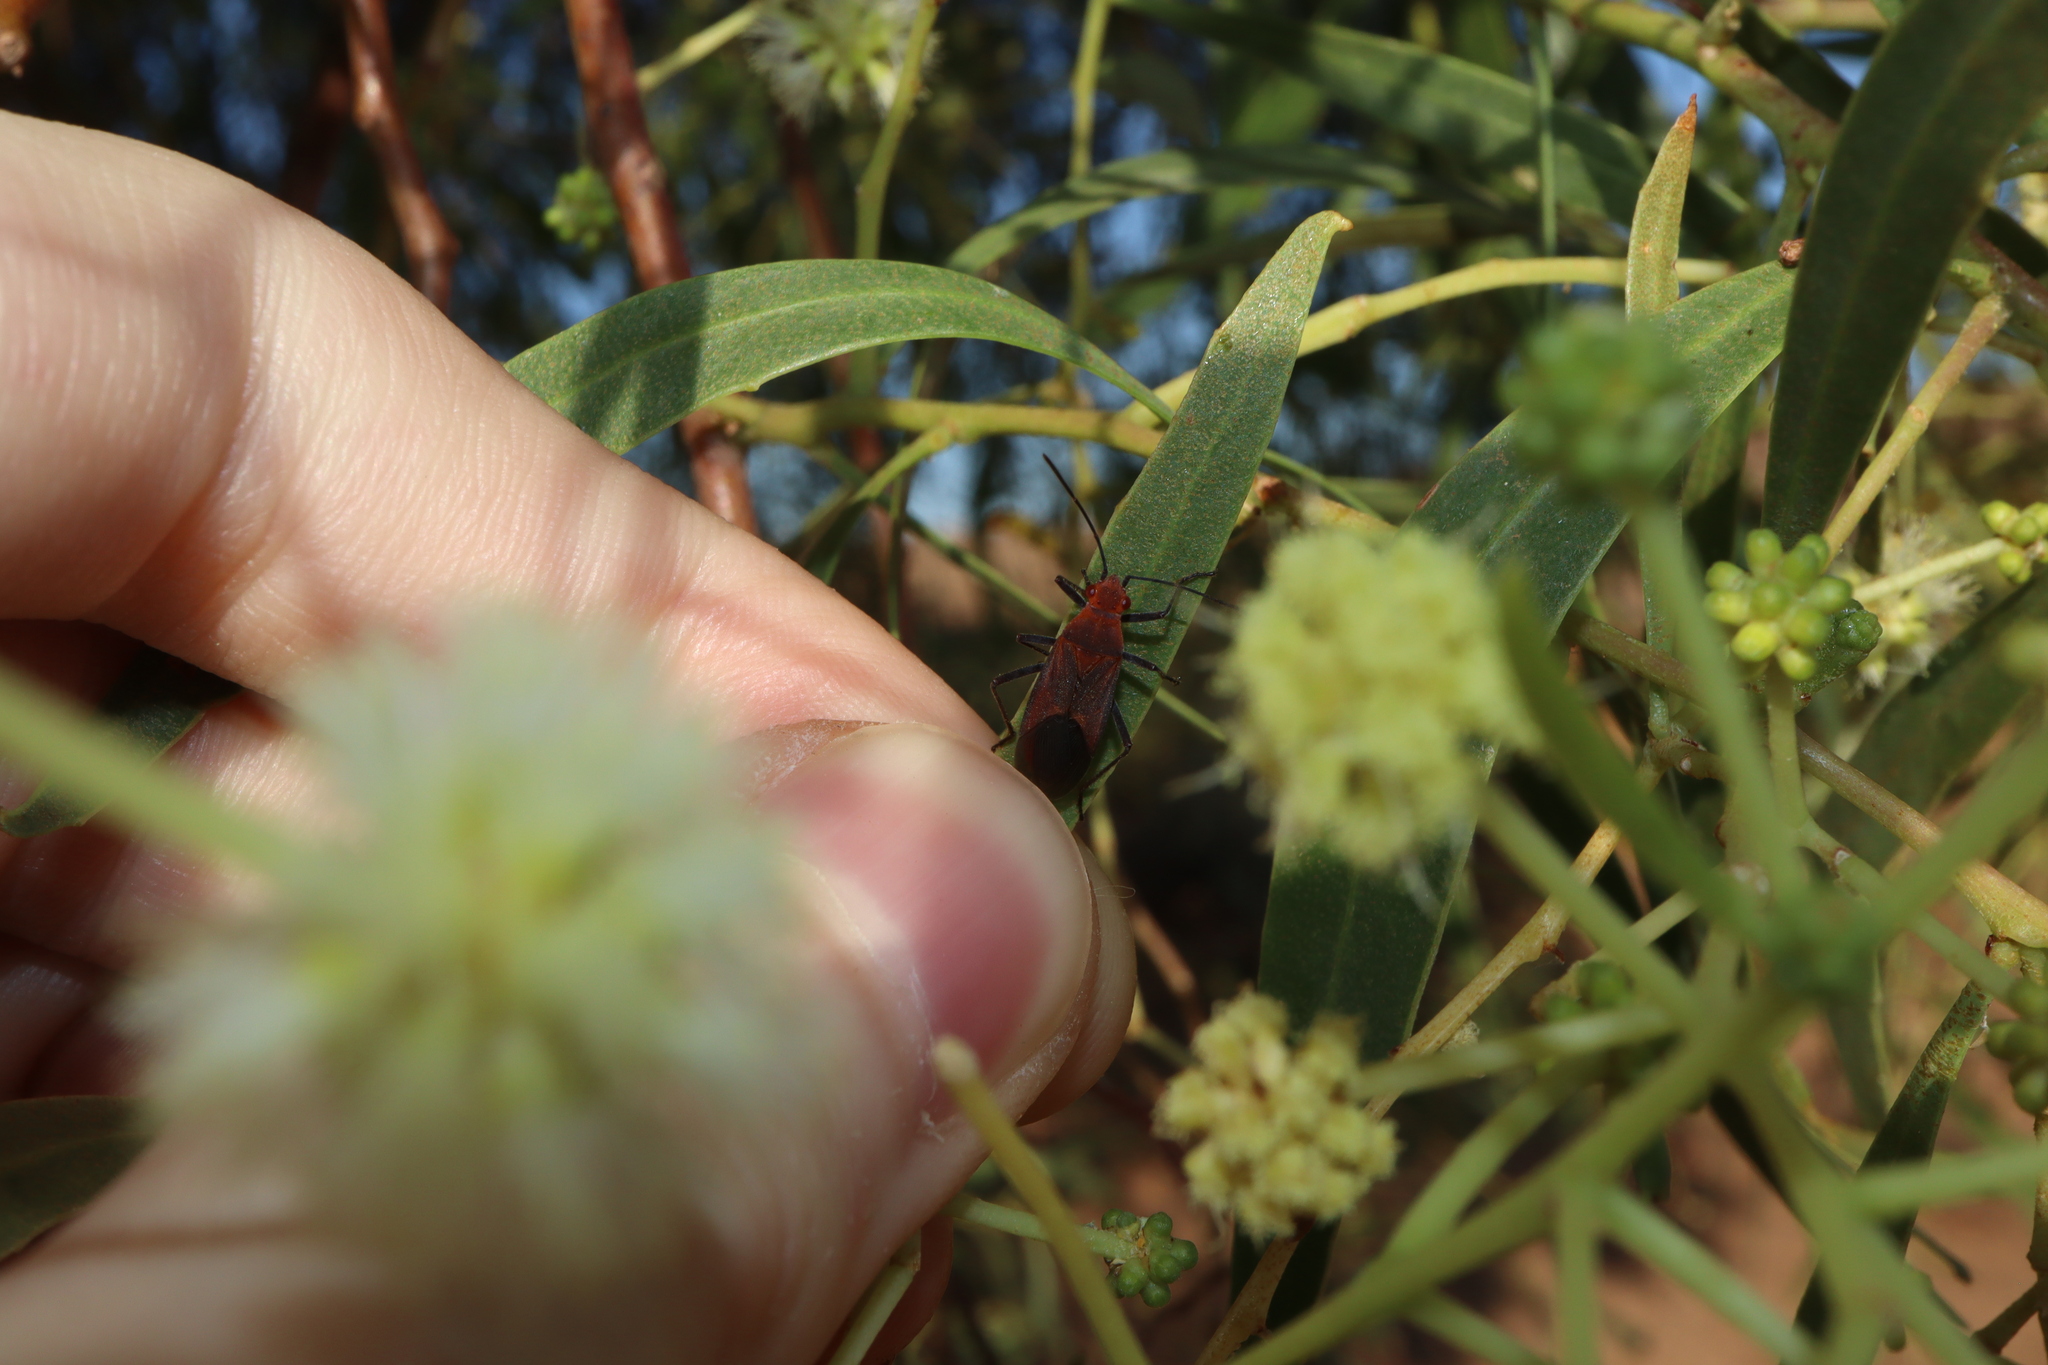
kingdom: Animalia
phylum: Arthropoda
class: Insecta
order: Hemiptera
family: Rhopalidae
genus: Leptocoris
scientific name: Leptocoris mitellatus
